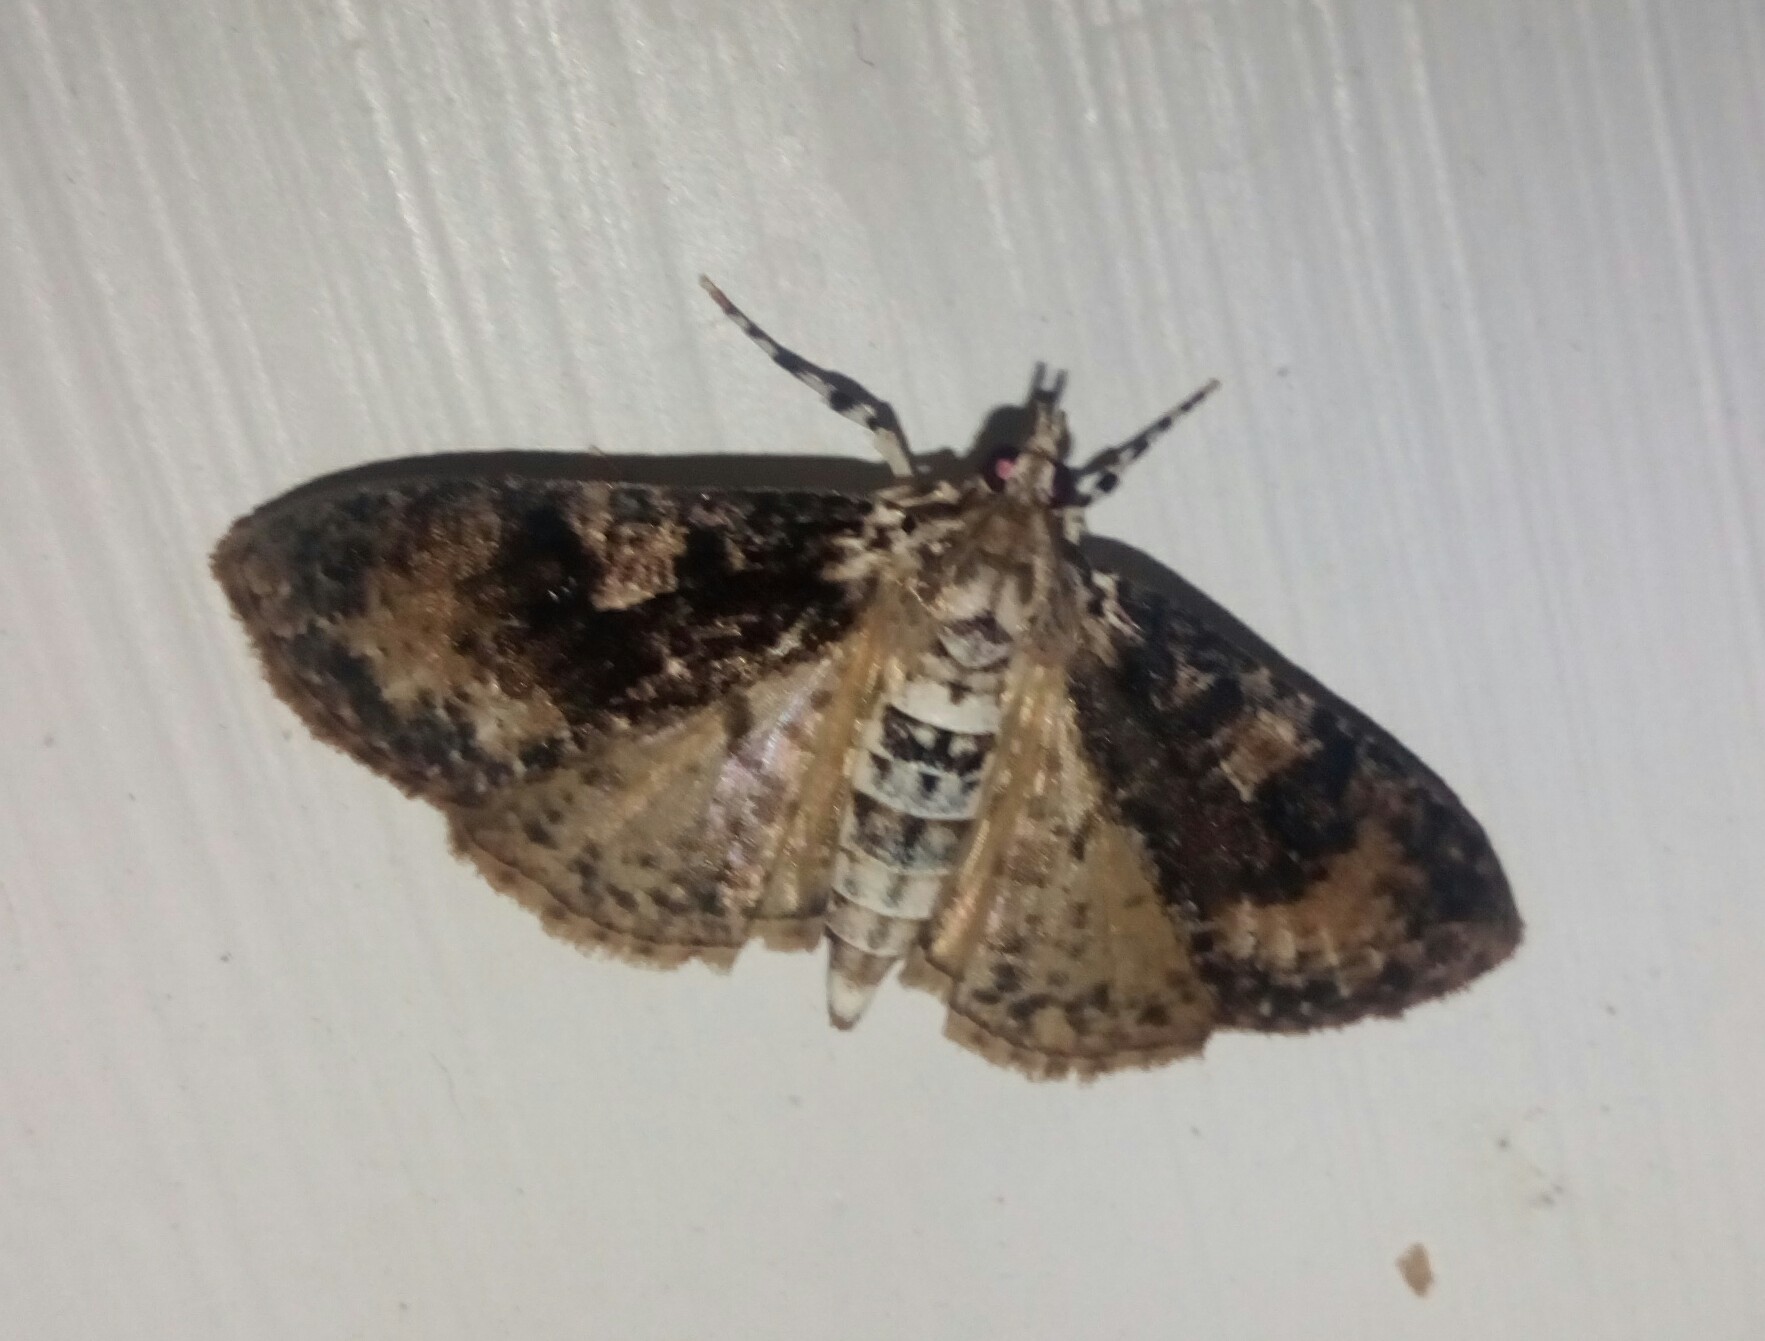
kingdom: Animalia
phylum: Arthropoda
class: Insecta
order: Lepidoptera
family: Crambidae
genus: Palpita
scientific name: Palpita magniferalis
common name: Splendid palpita moth
